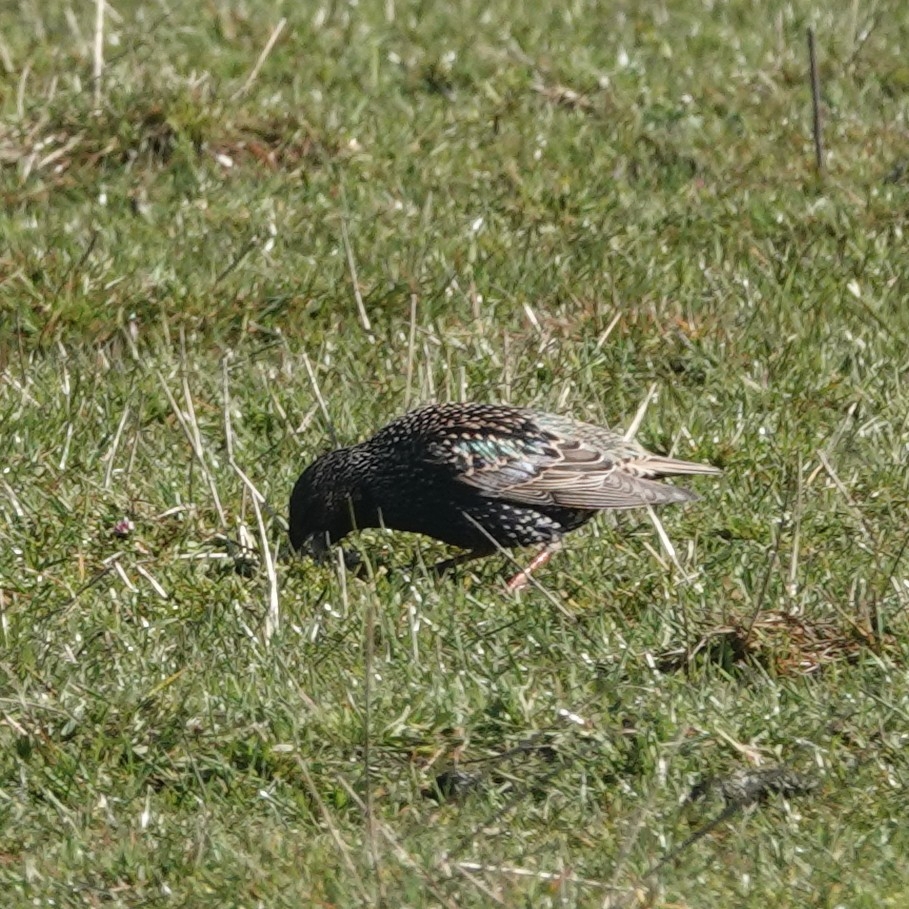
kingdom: Animalia
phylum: Chordata
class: Aves
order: Passeriformes
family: Sturnidae
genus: Sturnus
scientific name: Sturnus vulgaris
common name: Common starling
